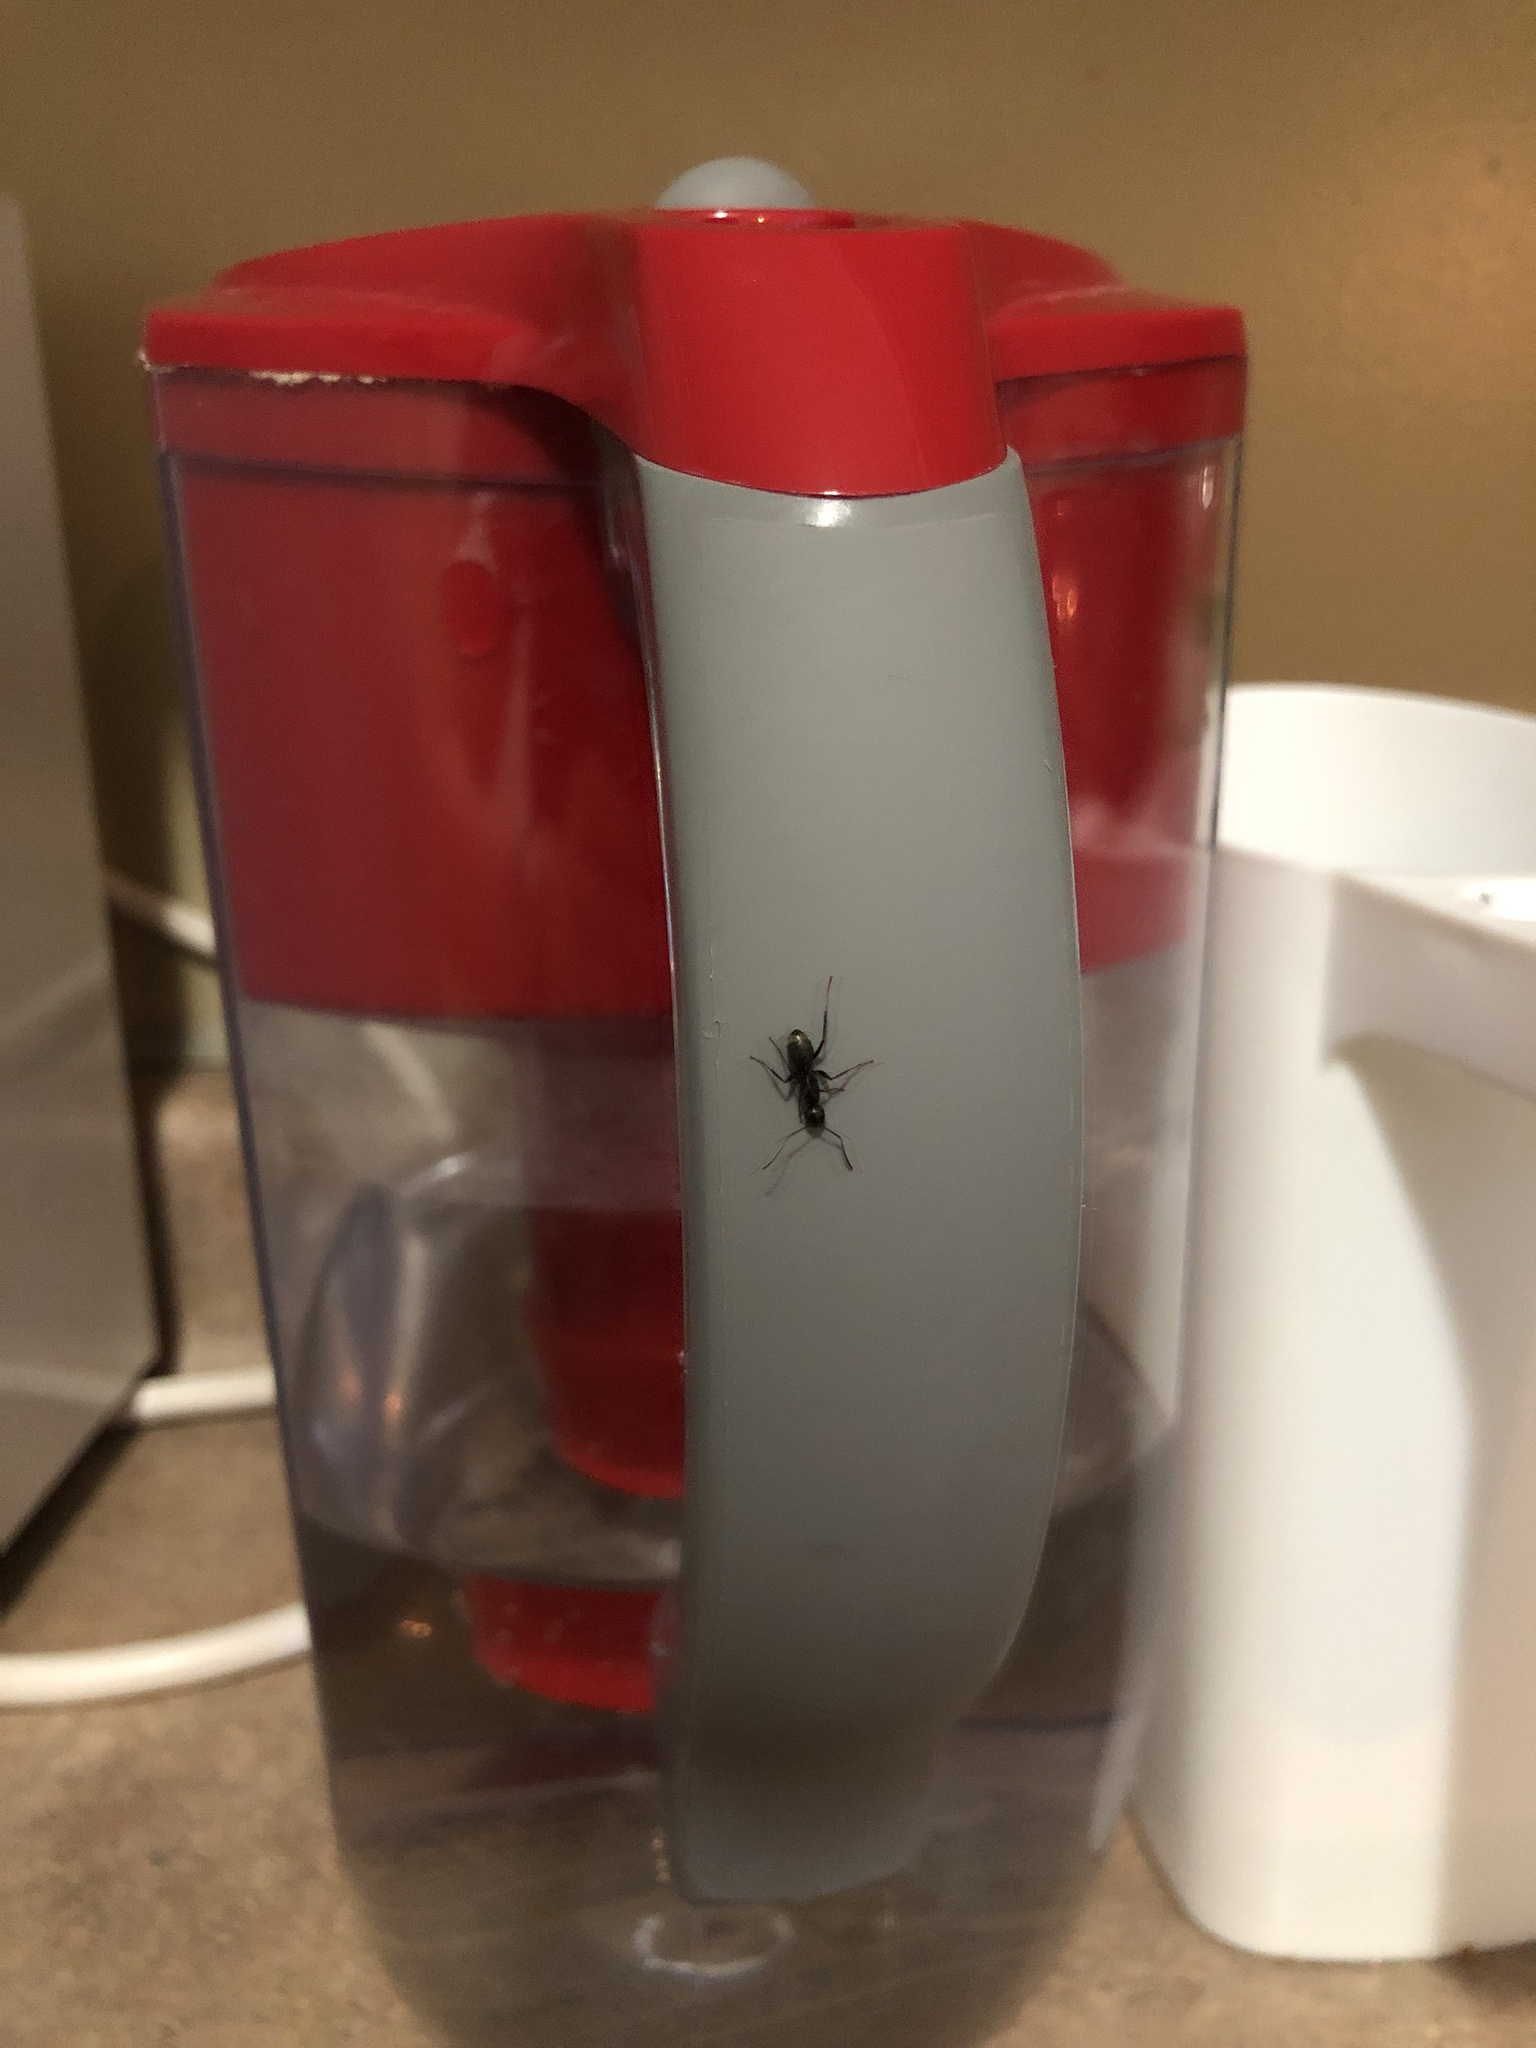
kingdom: Animalia
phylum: Arthropoda
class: Insecta
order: Hymenoptera
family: Formicidae
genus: Camponotus
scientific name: Camponotus pennsylvanicus
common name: Black carpenter ant
